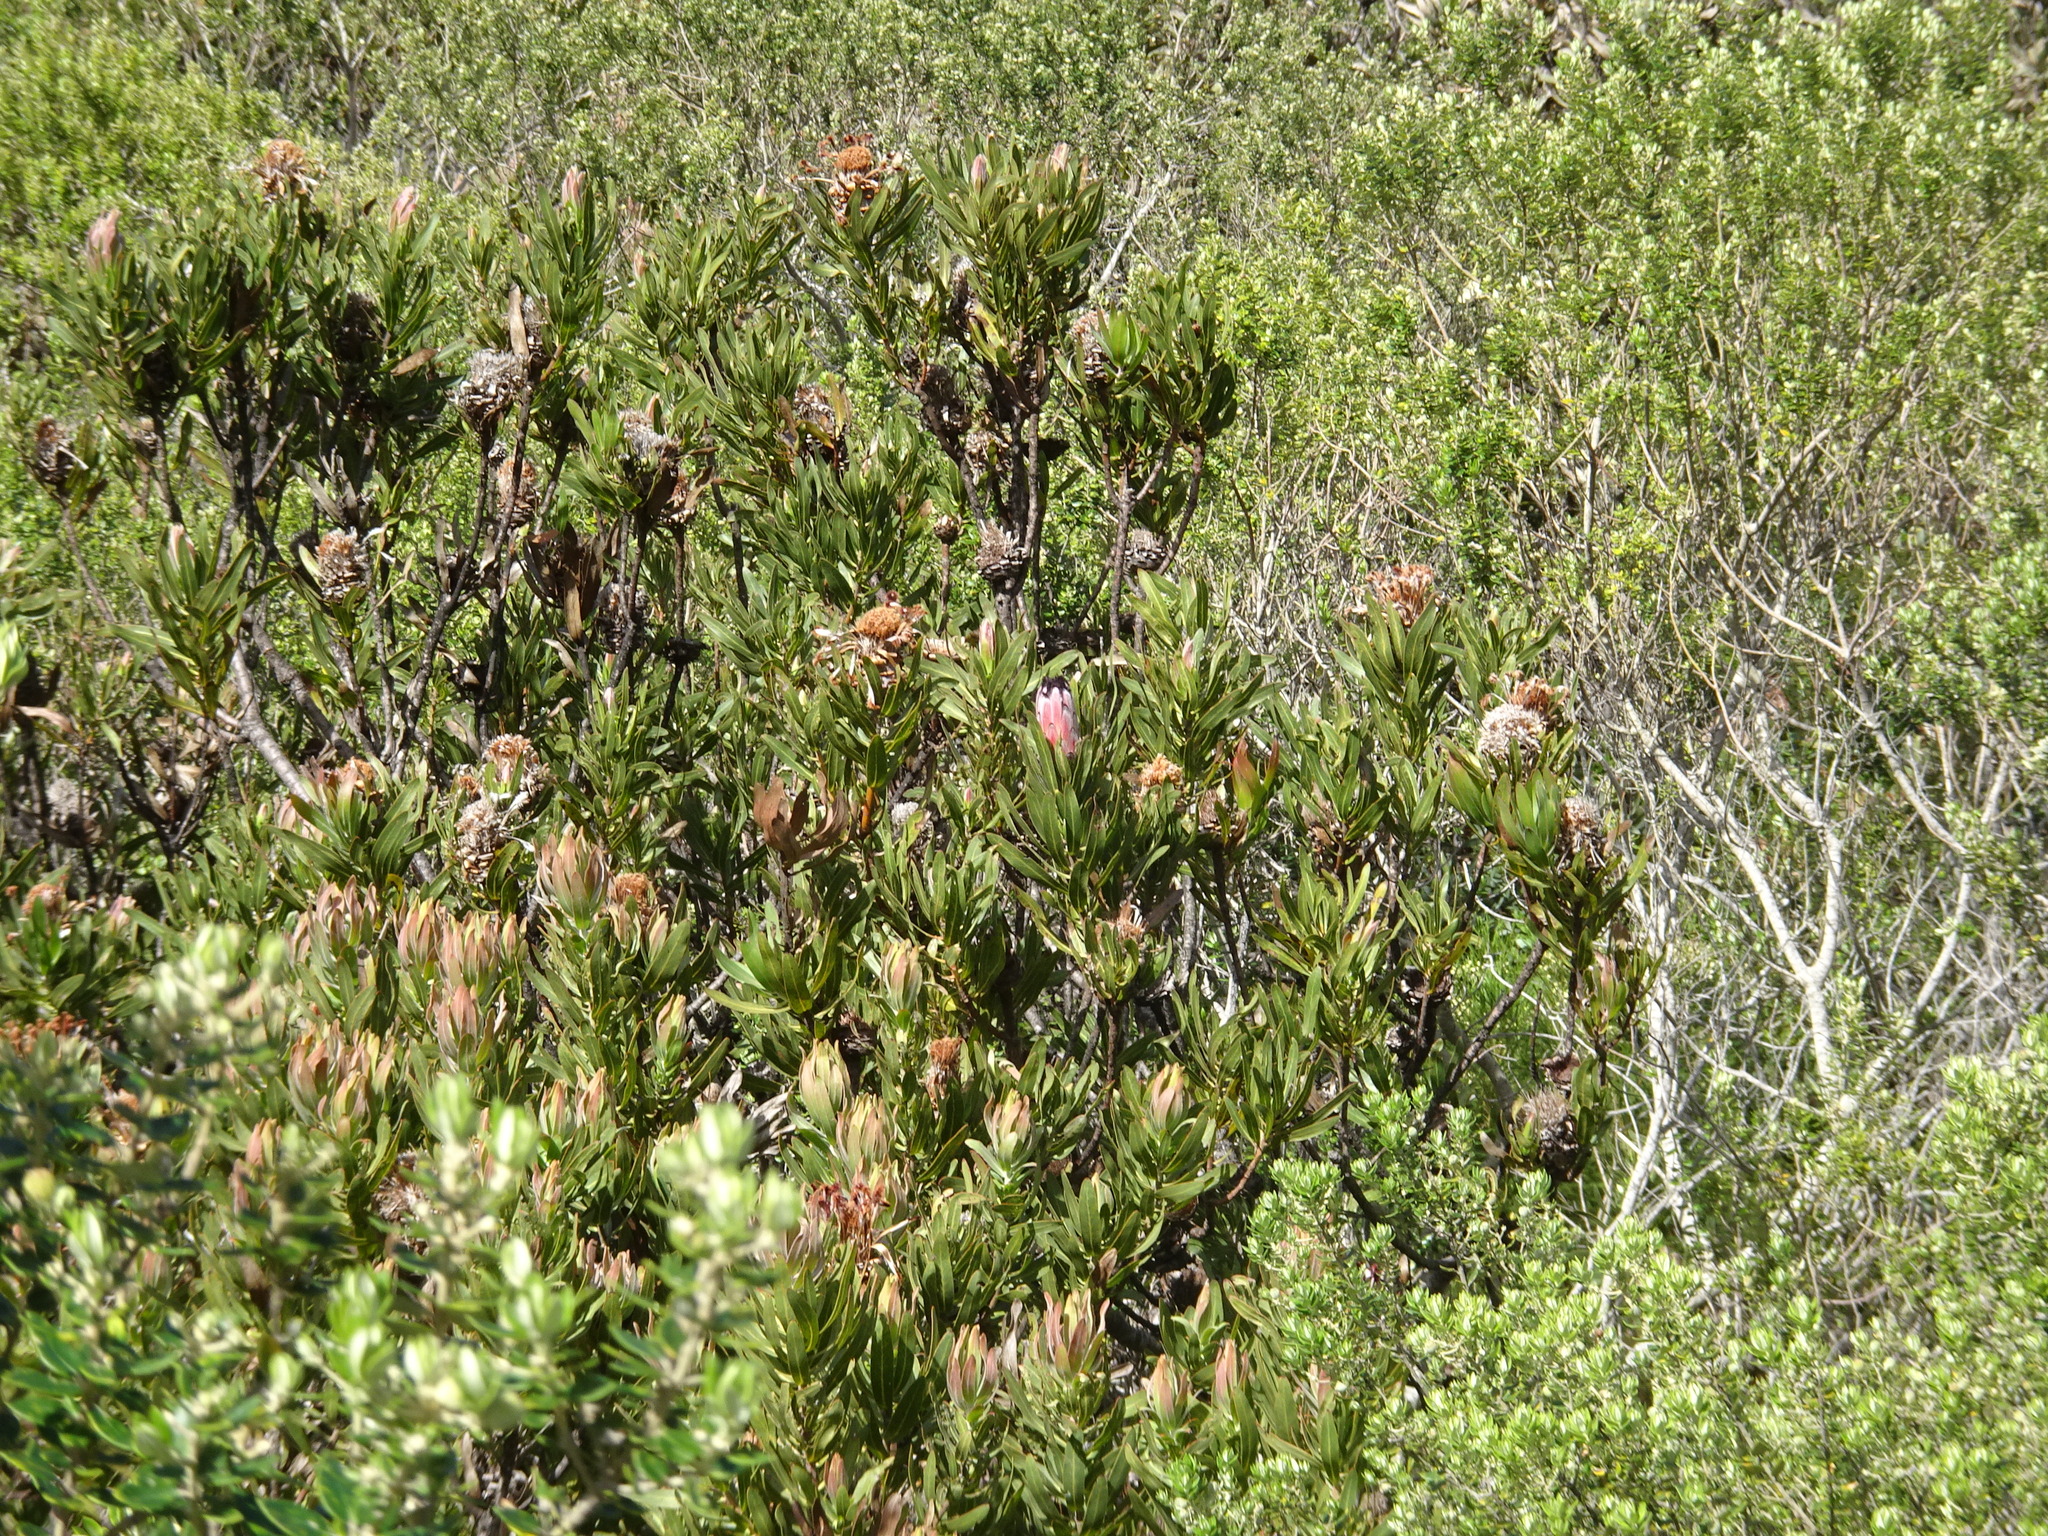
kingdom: Plantae
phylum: Tracheophyta
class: Magnoliopsida
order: Proteales
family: Proteaceae
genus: Protea
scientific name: Protea neriifolia
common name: Blue sugarbush
